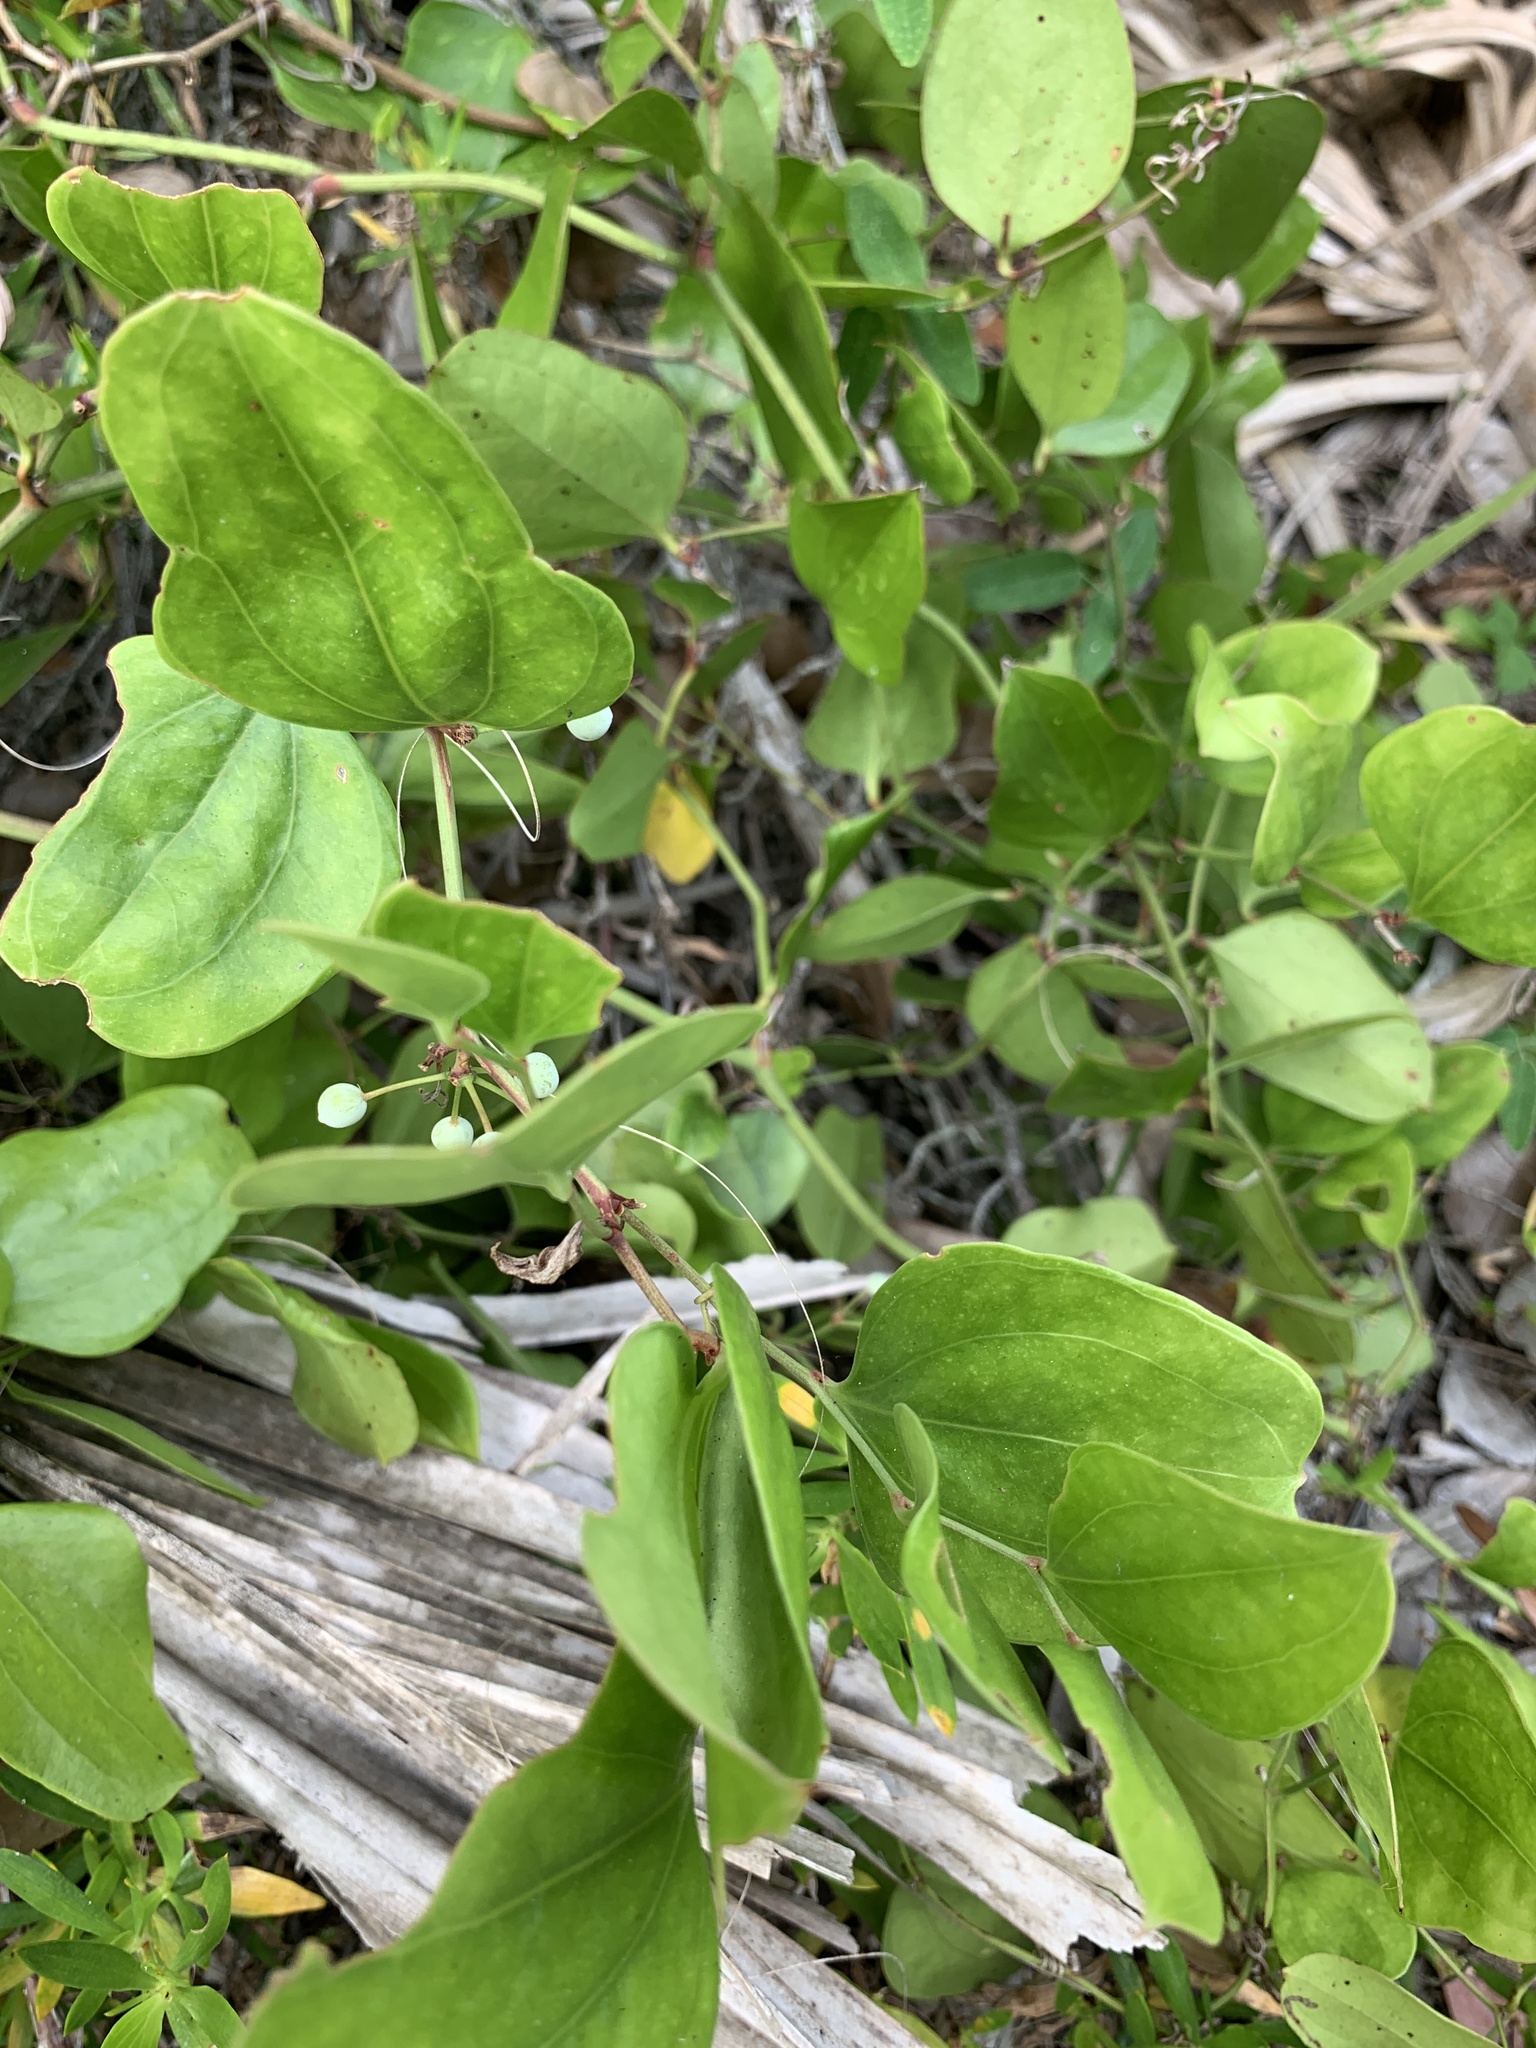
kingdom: Plantae
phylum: Tracheophyta
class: Liliopsida
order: Liliales
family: Smilacaceae
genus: Smilax
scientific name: Smilax auriculata
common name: Wild bamboo
